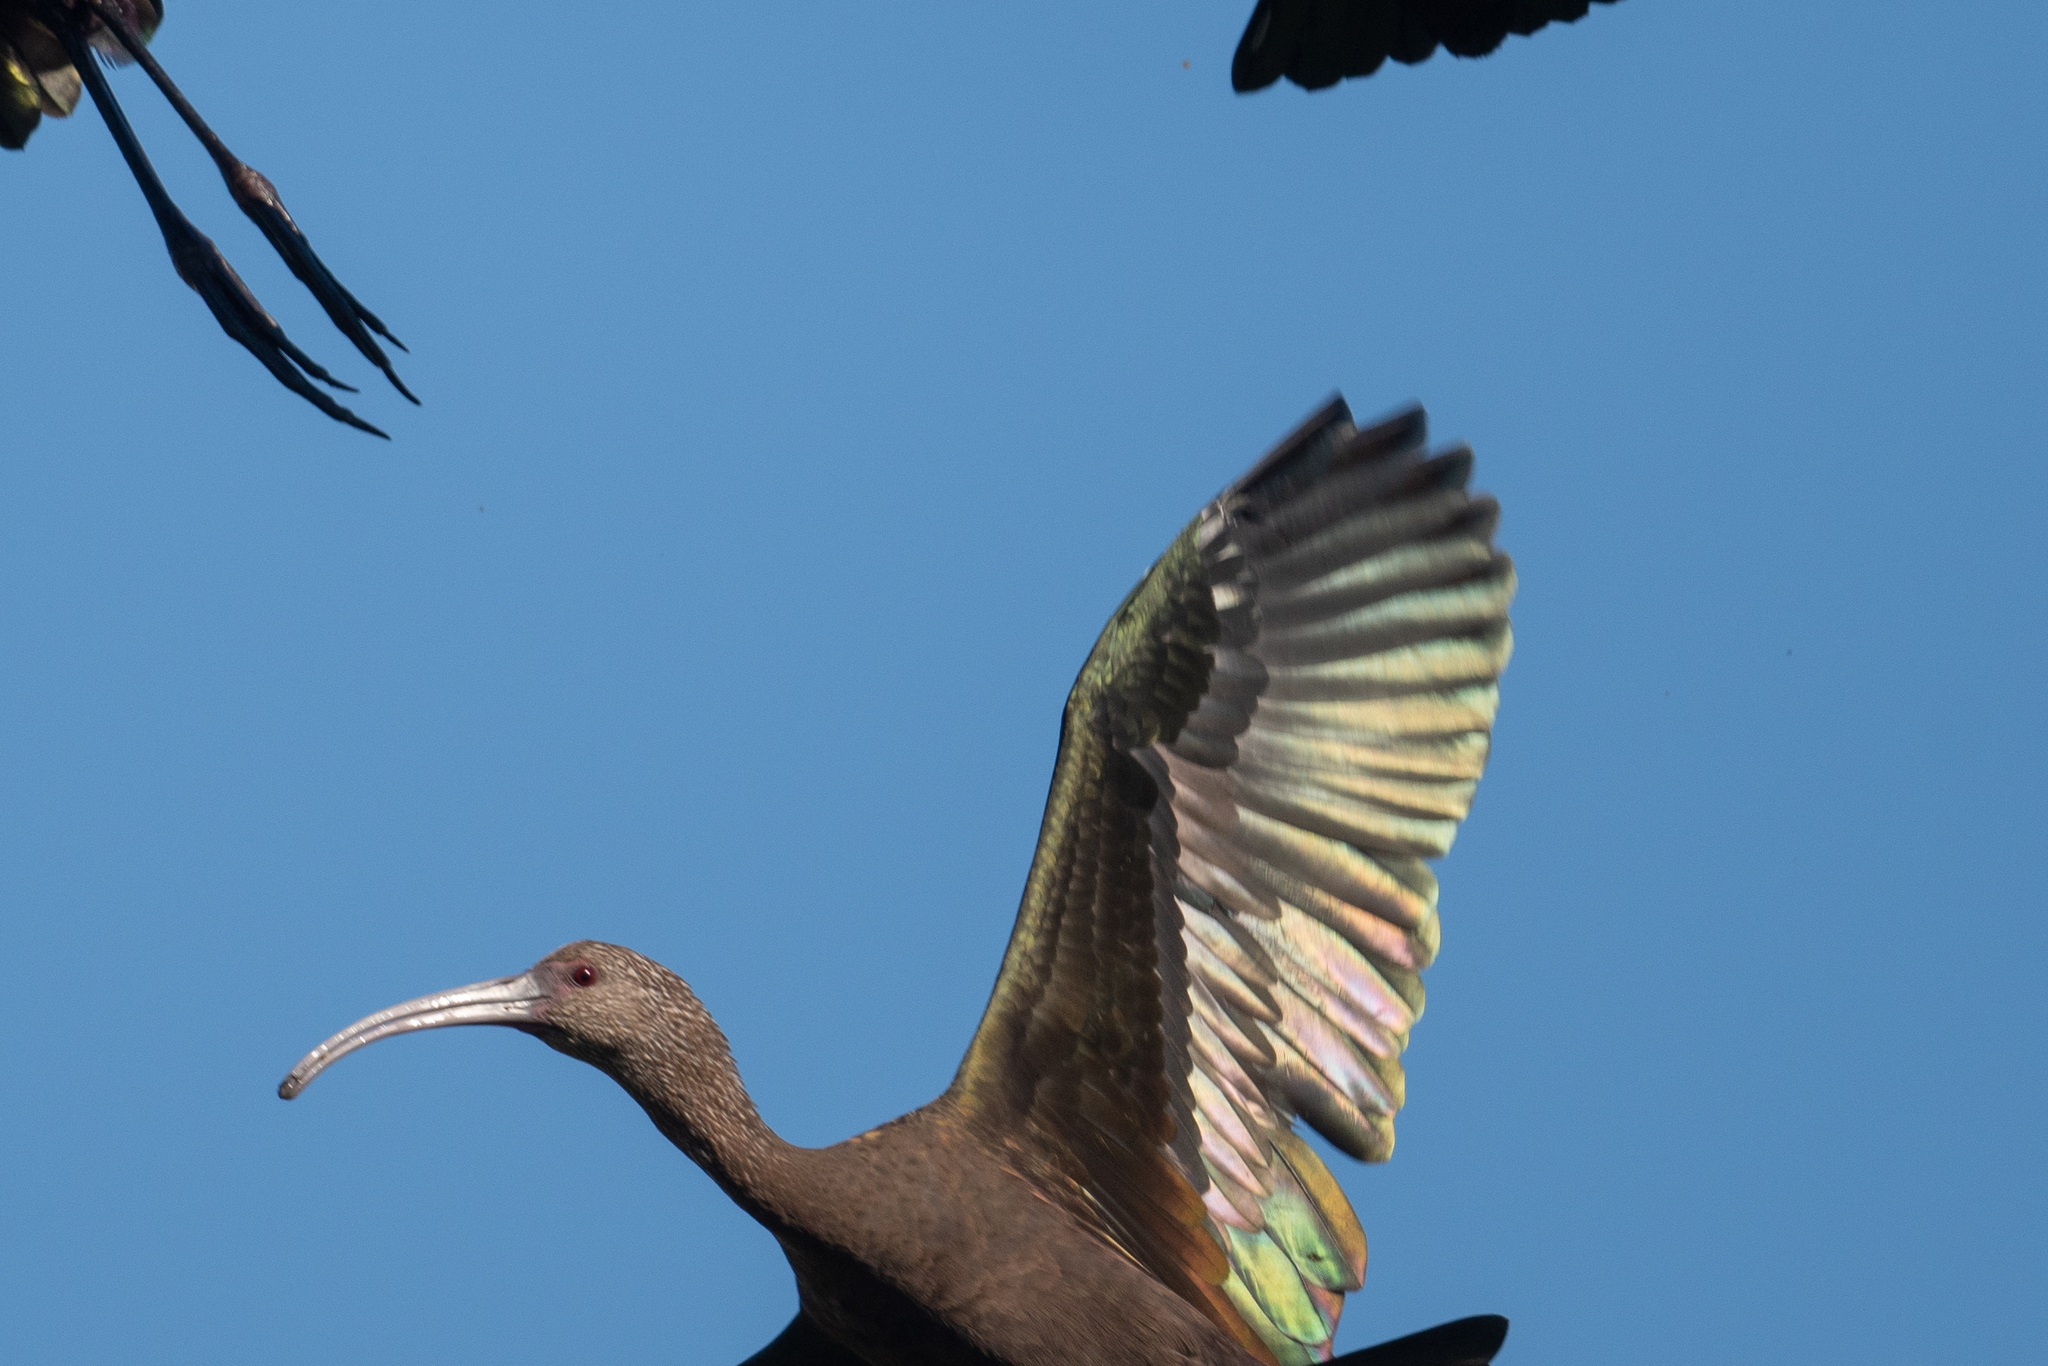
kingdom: Animalia
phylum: Chordata
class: Aves
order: Pelecaniformes
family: Threskiornithidae
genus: Plegadis
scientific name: Plegadis chihi
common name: White-faced ibis
